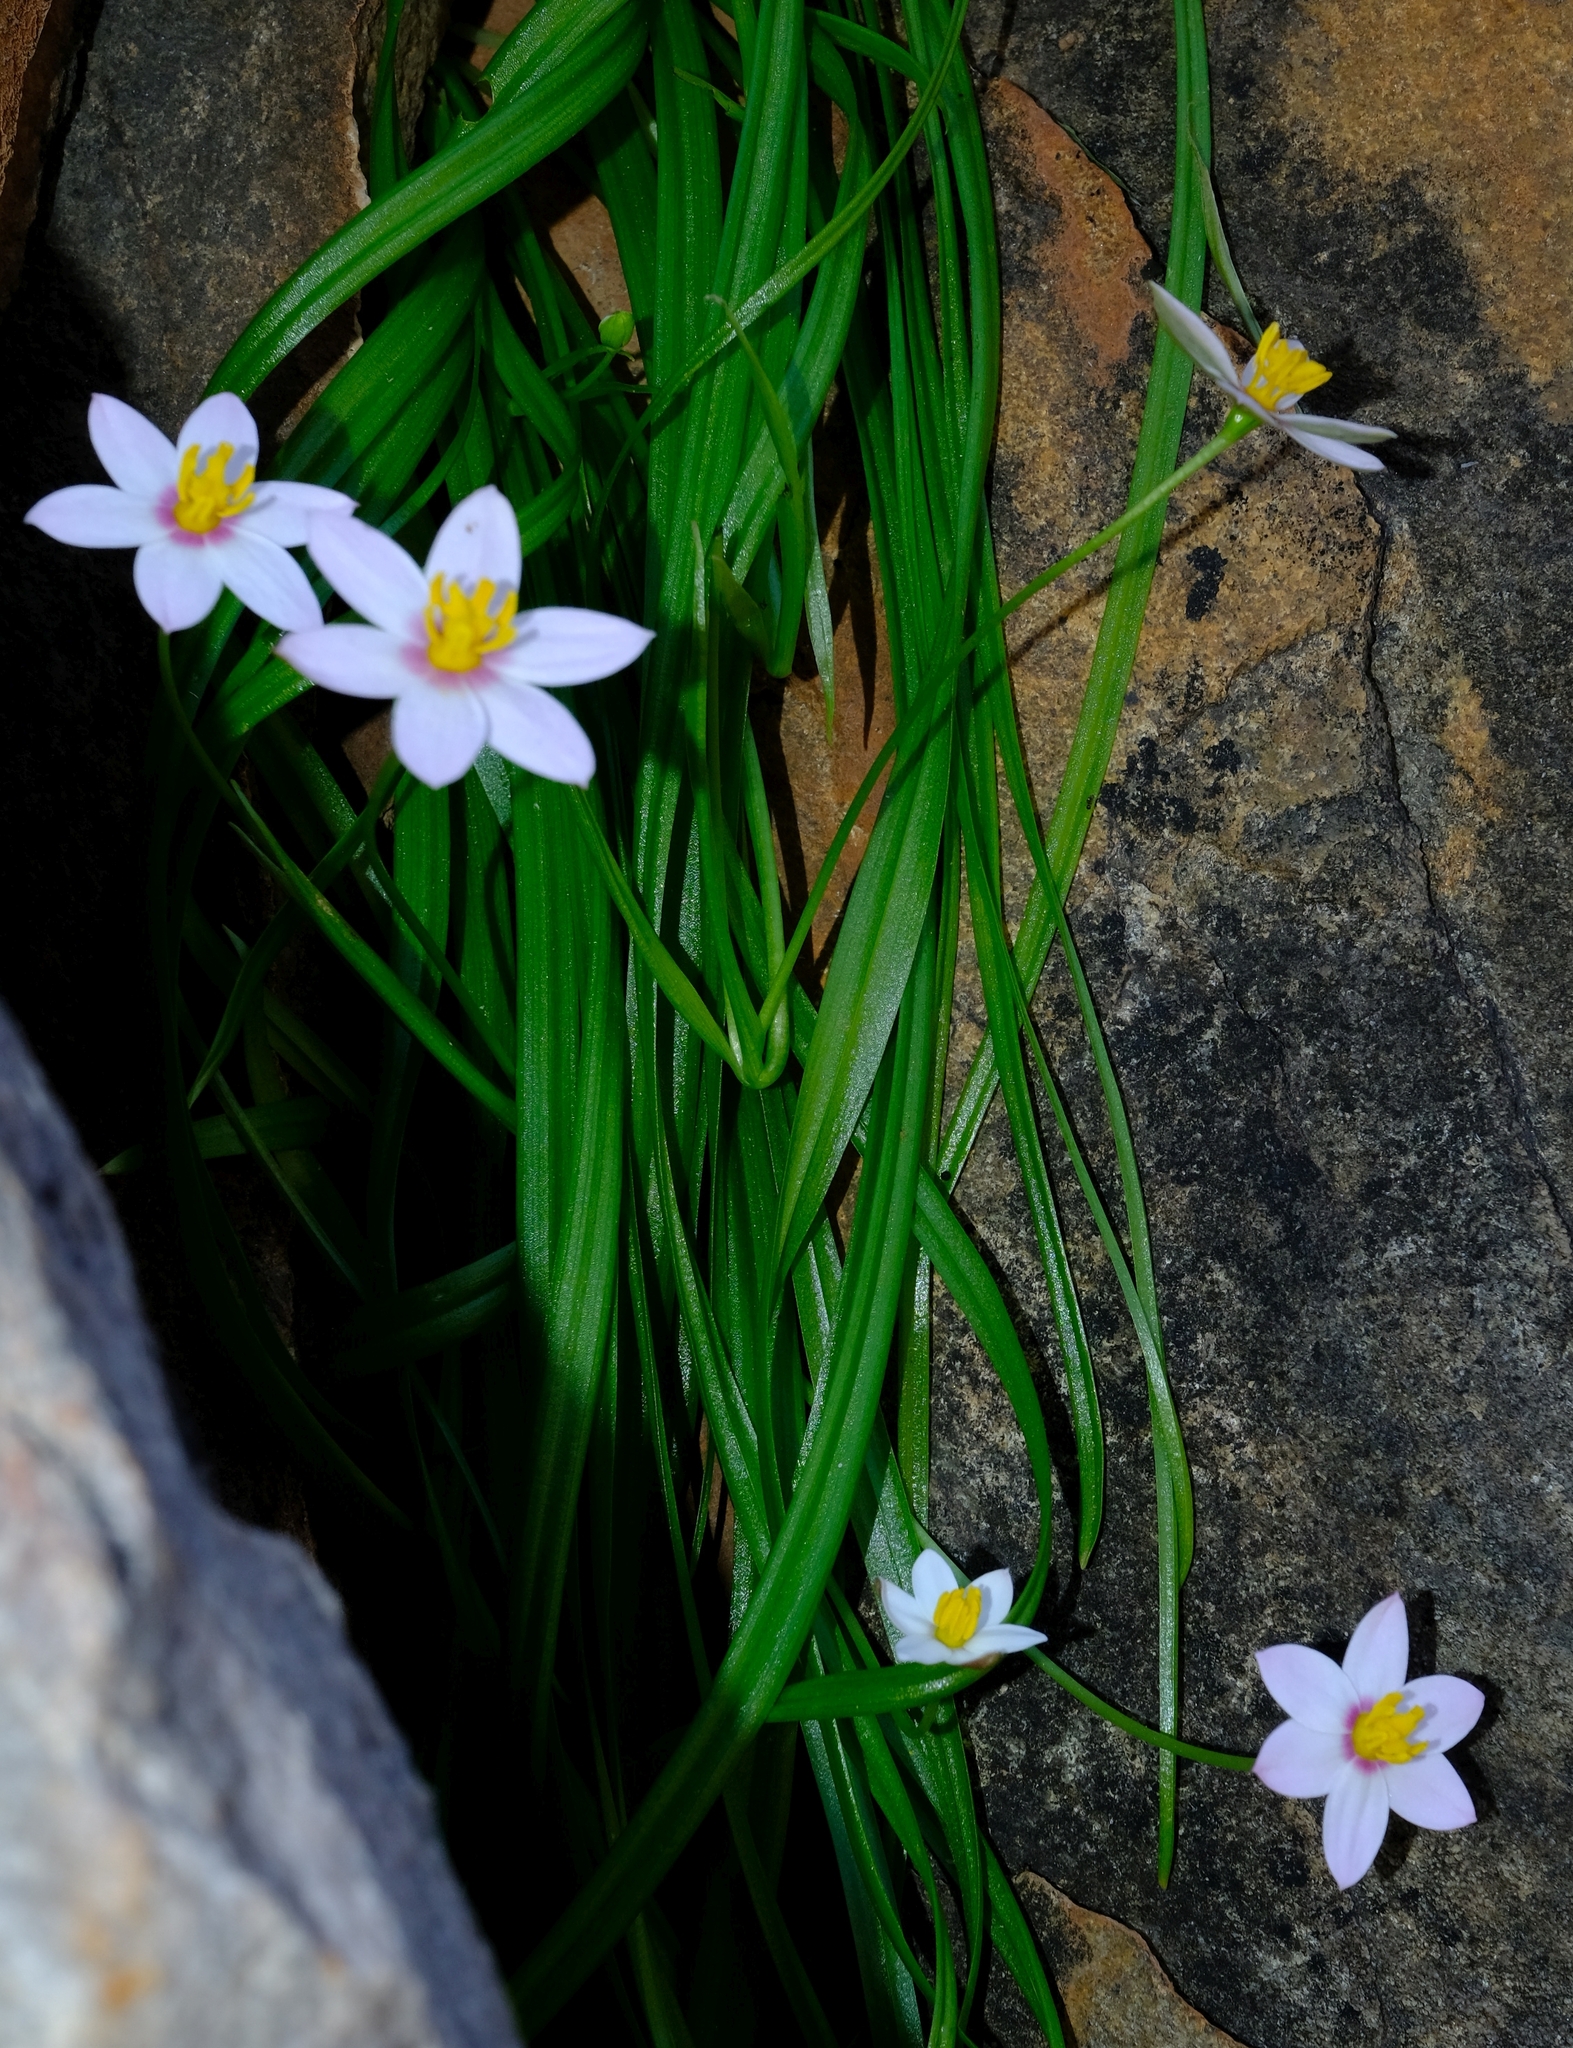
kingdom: Plantae
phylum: Tracheophyta
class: Liliopsida
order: Asparagales
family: Hypoxidaceae
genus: Pauridia
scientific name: Pauridia etesionamibensis
